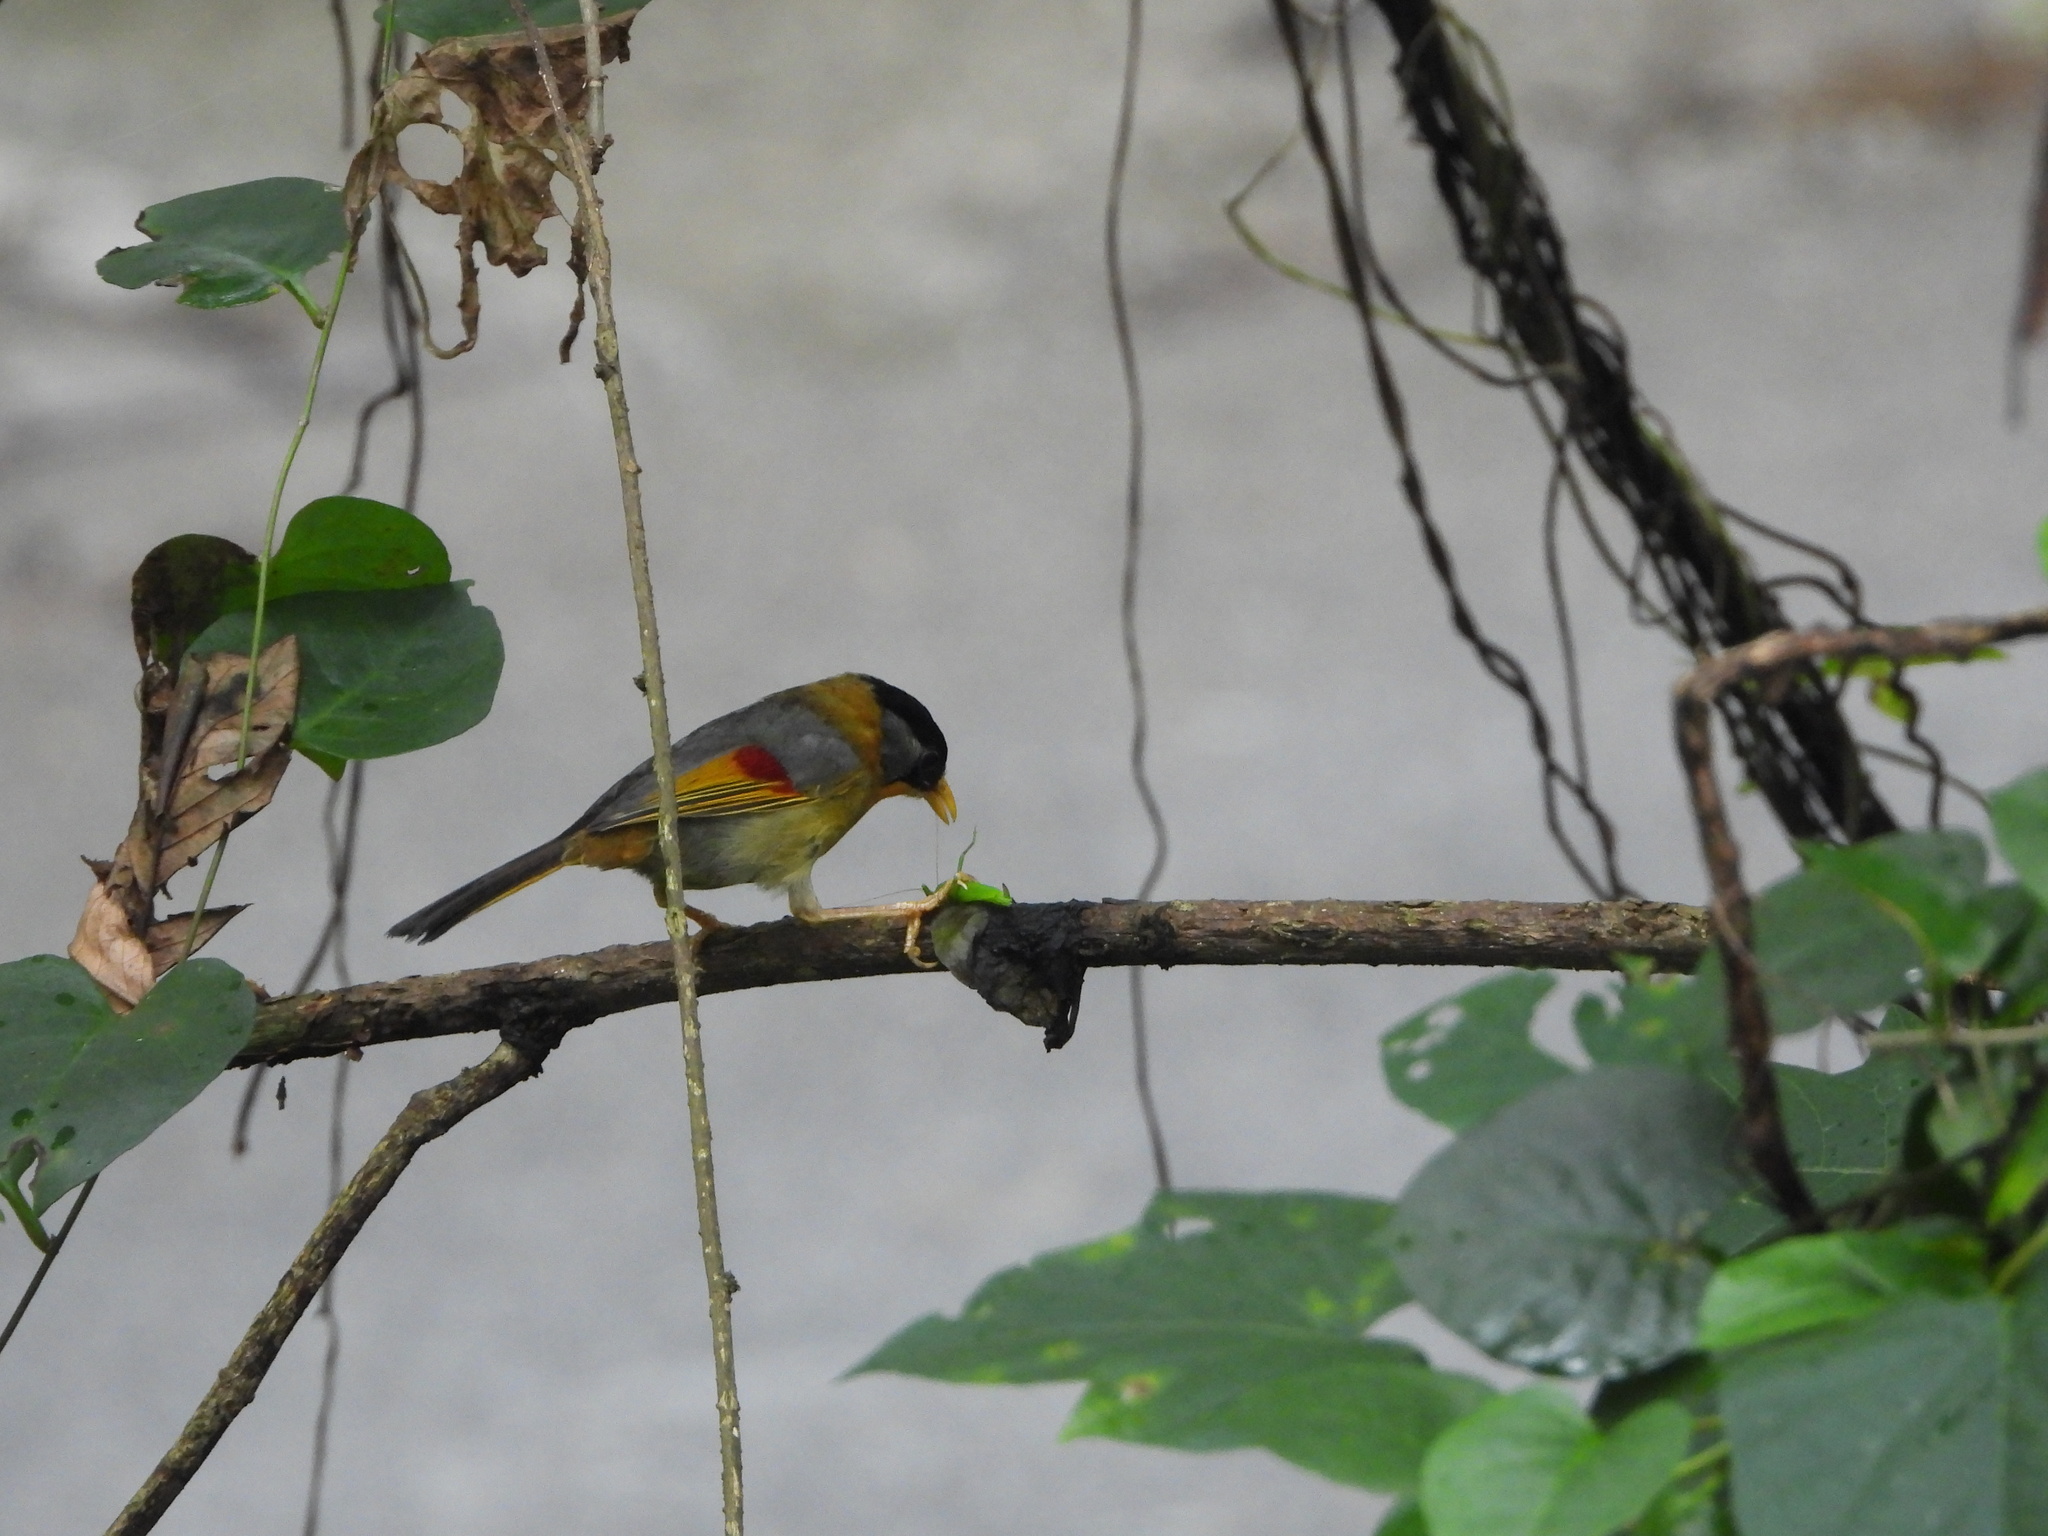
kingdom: Animalia
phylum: Chordata
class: Aves
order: Passeriformes
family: Leiothrichidae
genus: Leiothrix
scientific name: Leiothrix argentauris
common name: Silver-eared mesia
